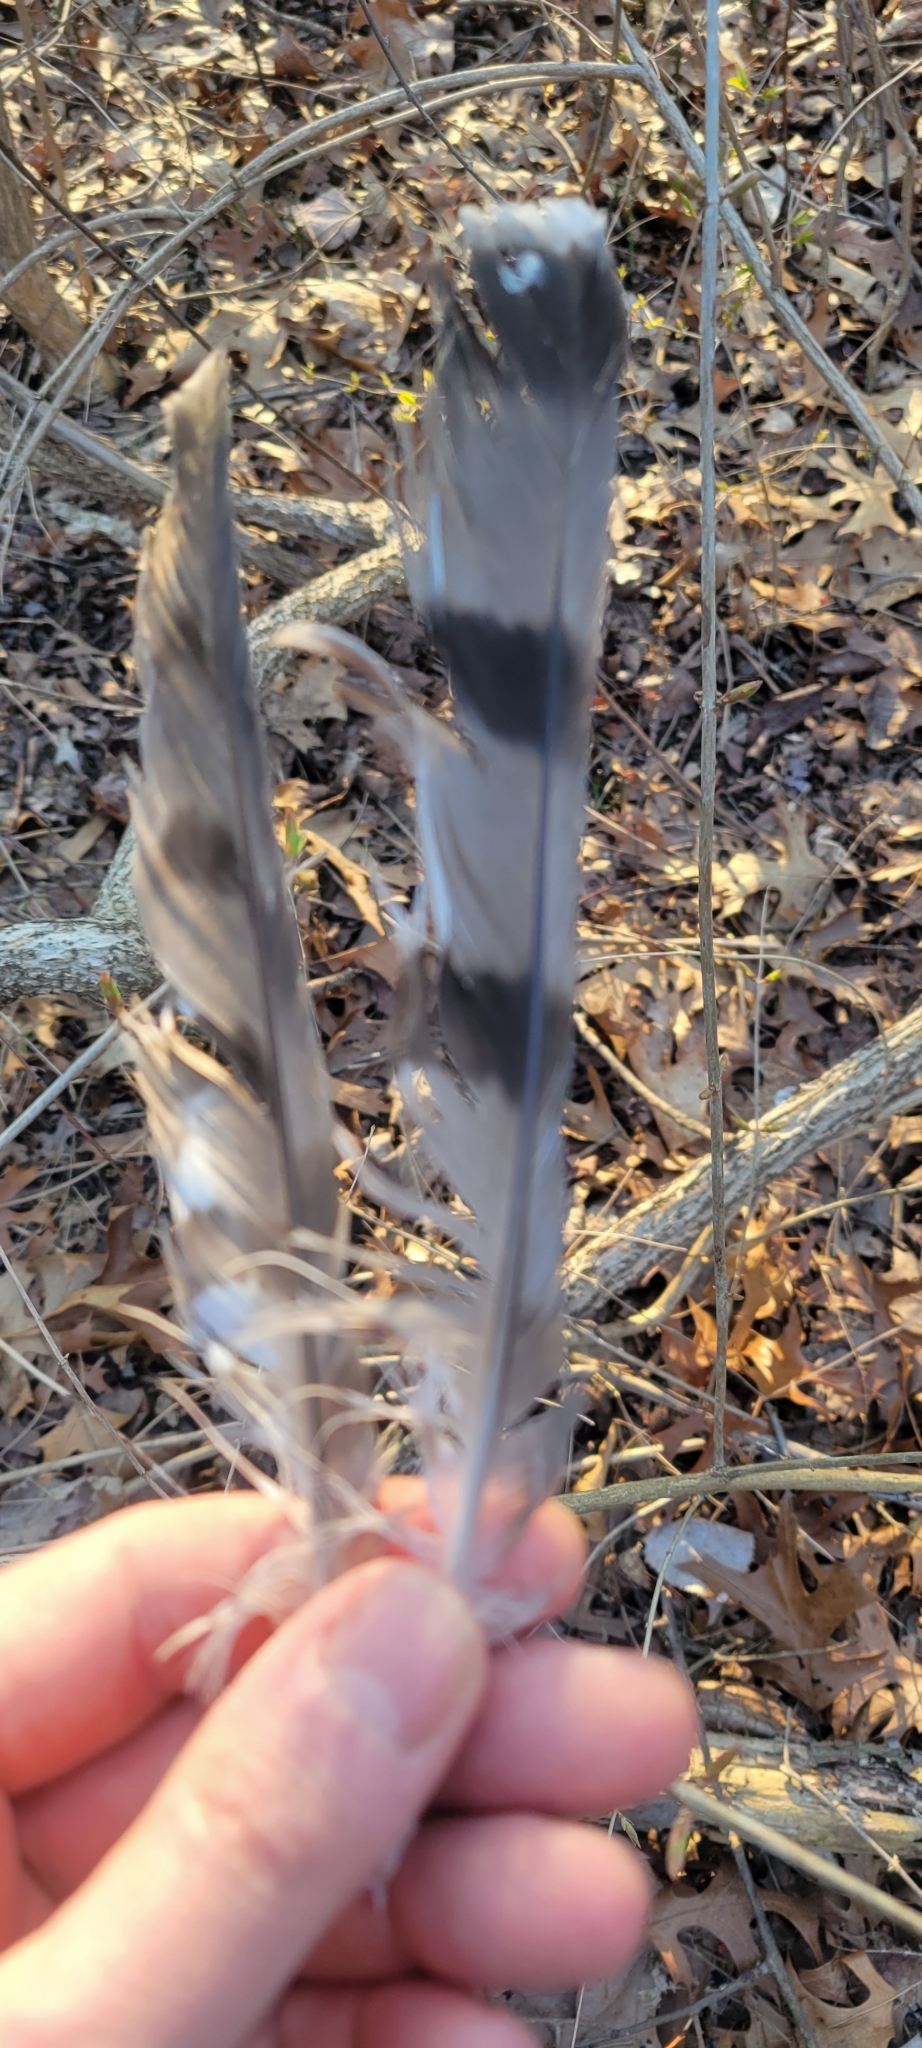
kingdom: Animalia
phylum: Chordata
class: Aves
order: Accipitriformes
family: Accipitridae
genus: Accipiter
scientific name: Accipiter cooperii
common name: Cooper's hawk
